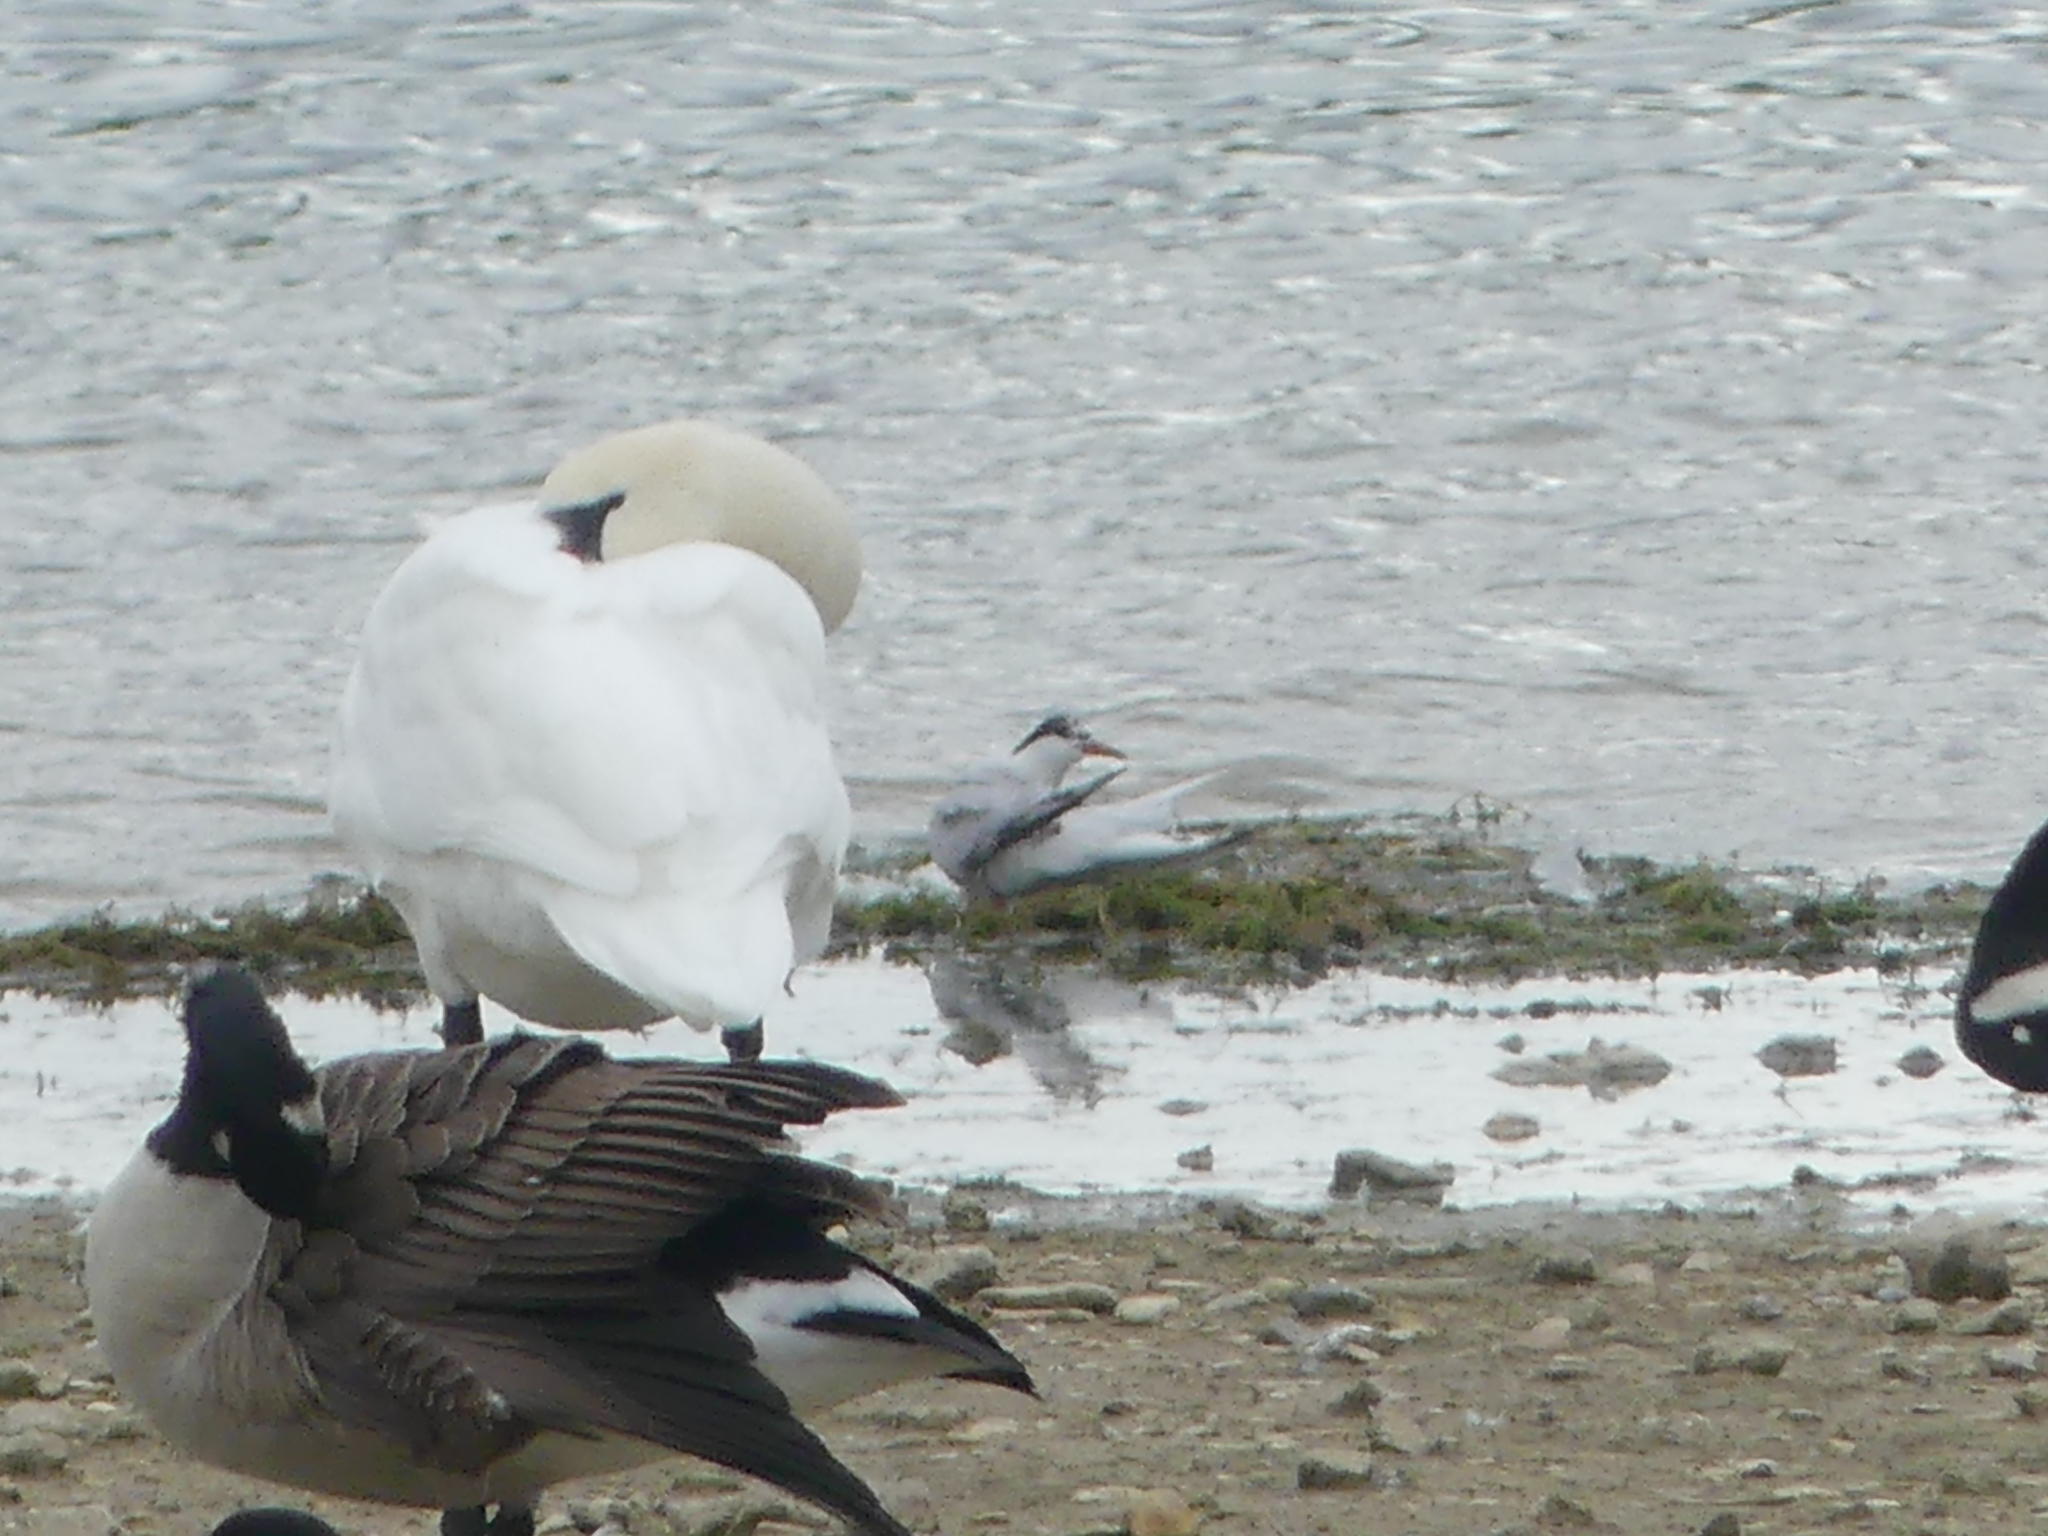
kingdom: Animalia
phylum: Chordata
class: Aves
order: Charadriiformes
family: Laridae
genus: Sterna
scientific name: Sterna hirundo
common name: Common tern
